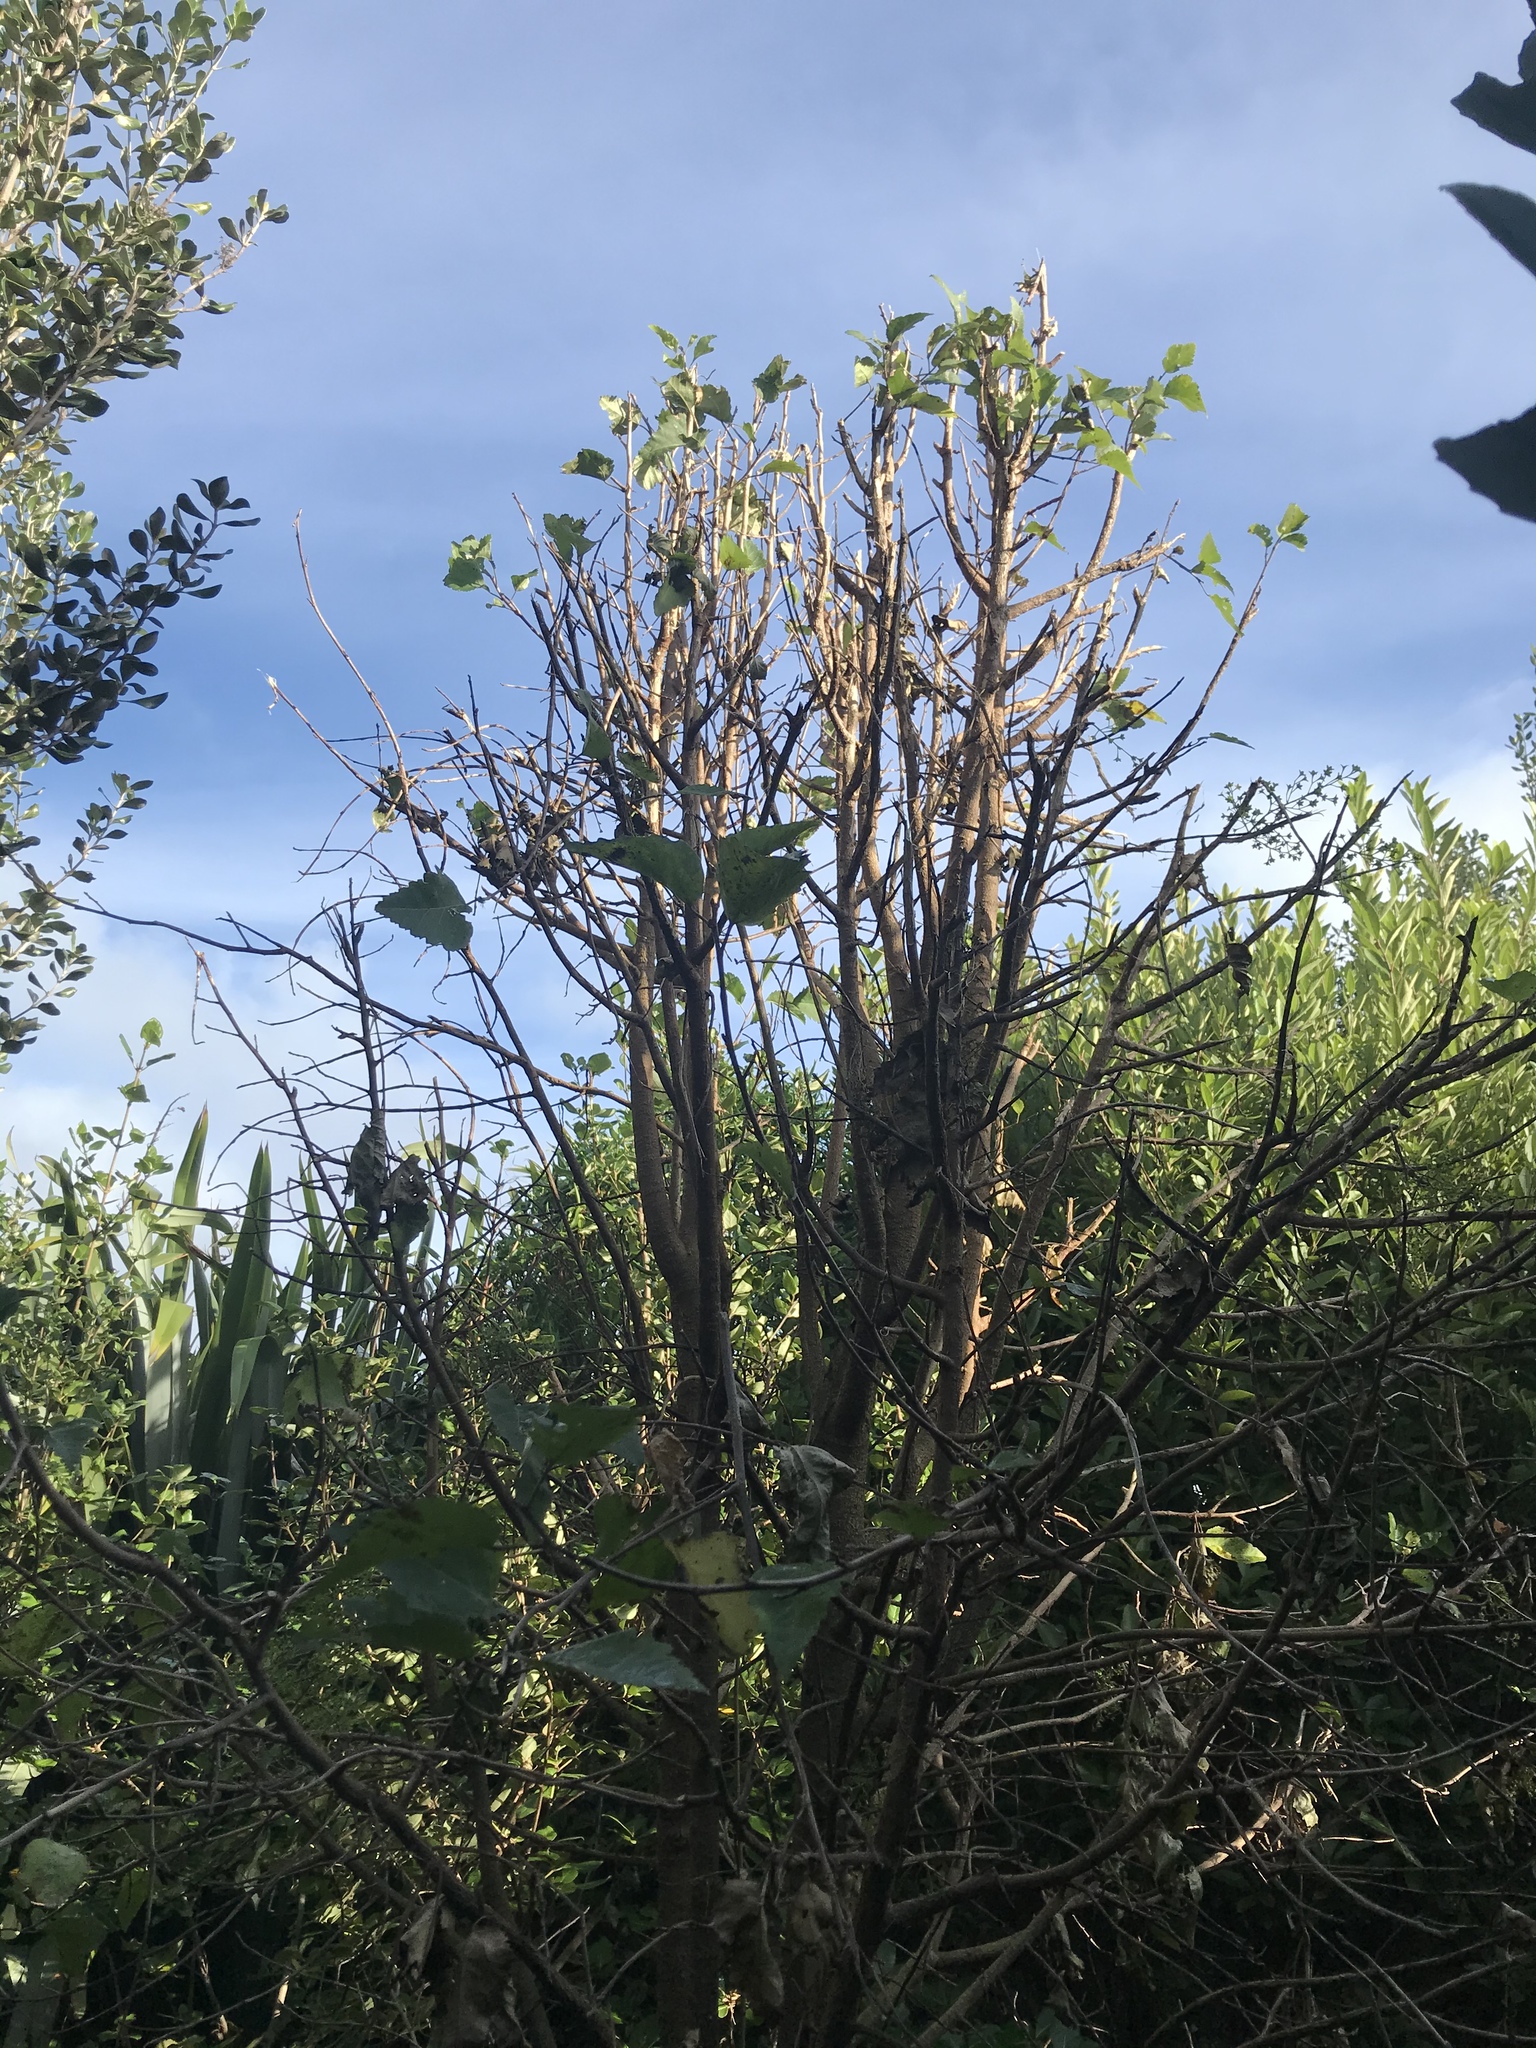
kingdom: Plantae
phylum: Tracheophyta
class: Magnoliopsida
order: Malvales
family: Malvaceae
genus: Plagianthus
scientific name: Plagianthus regius
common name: Manatu
